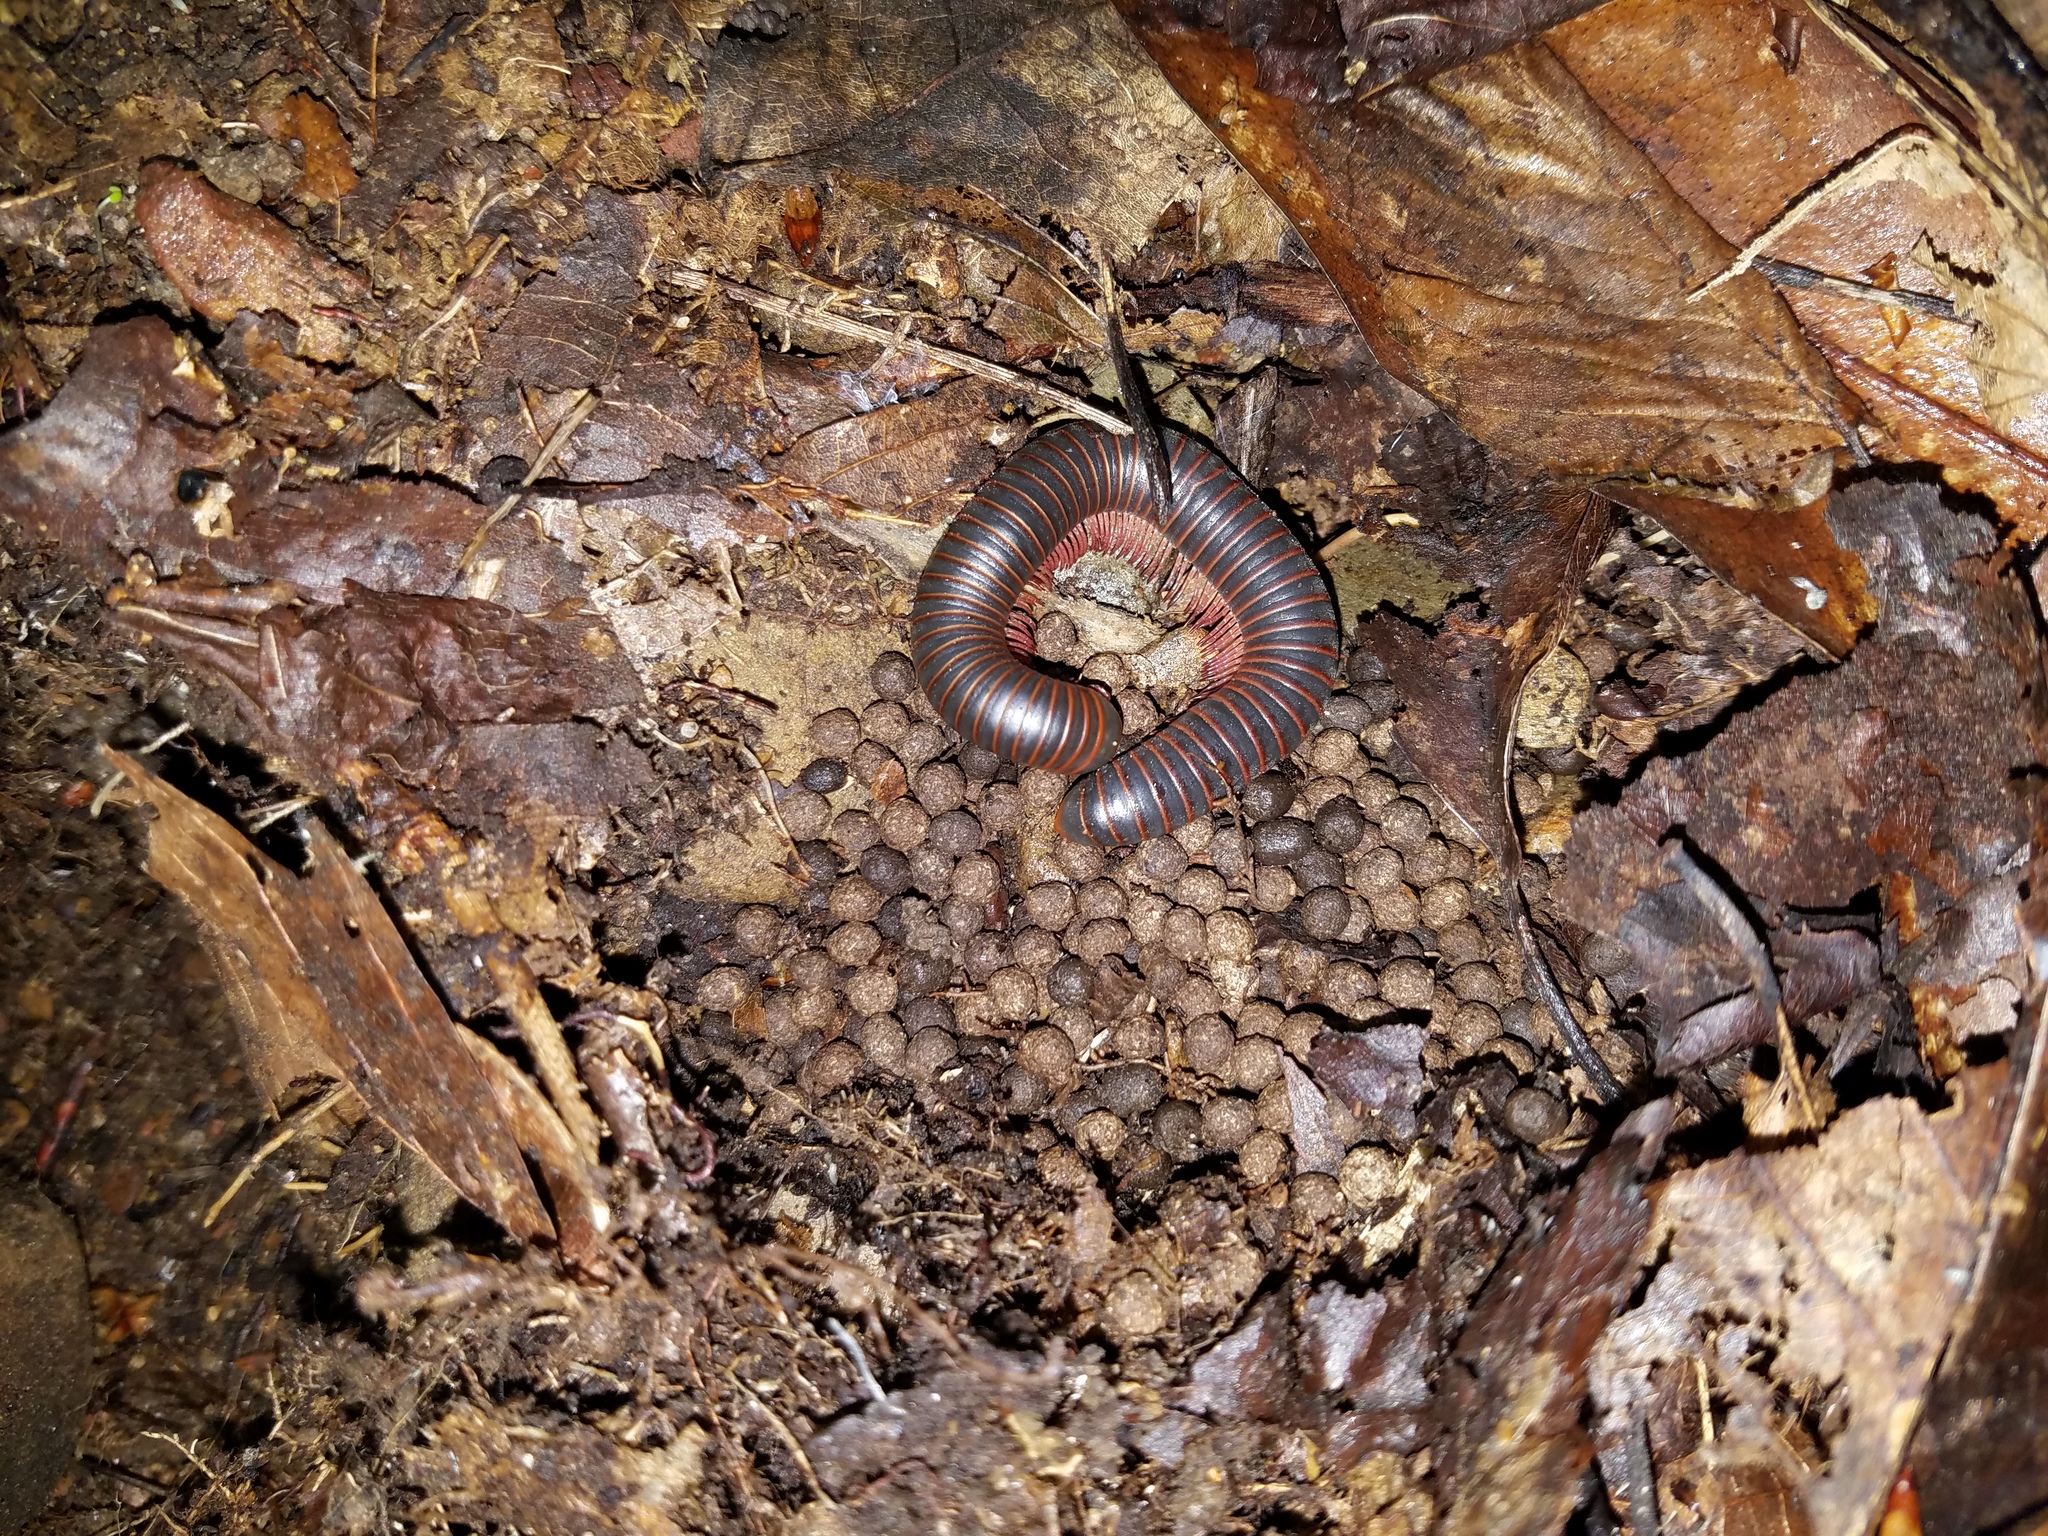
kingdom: Animalia
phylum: Arthropoda
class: Diplopoda
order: Spirobolida
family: Spirobolidae
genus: Narceus
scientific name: Narceus
